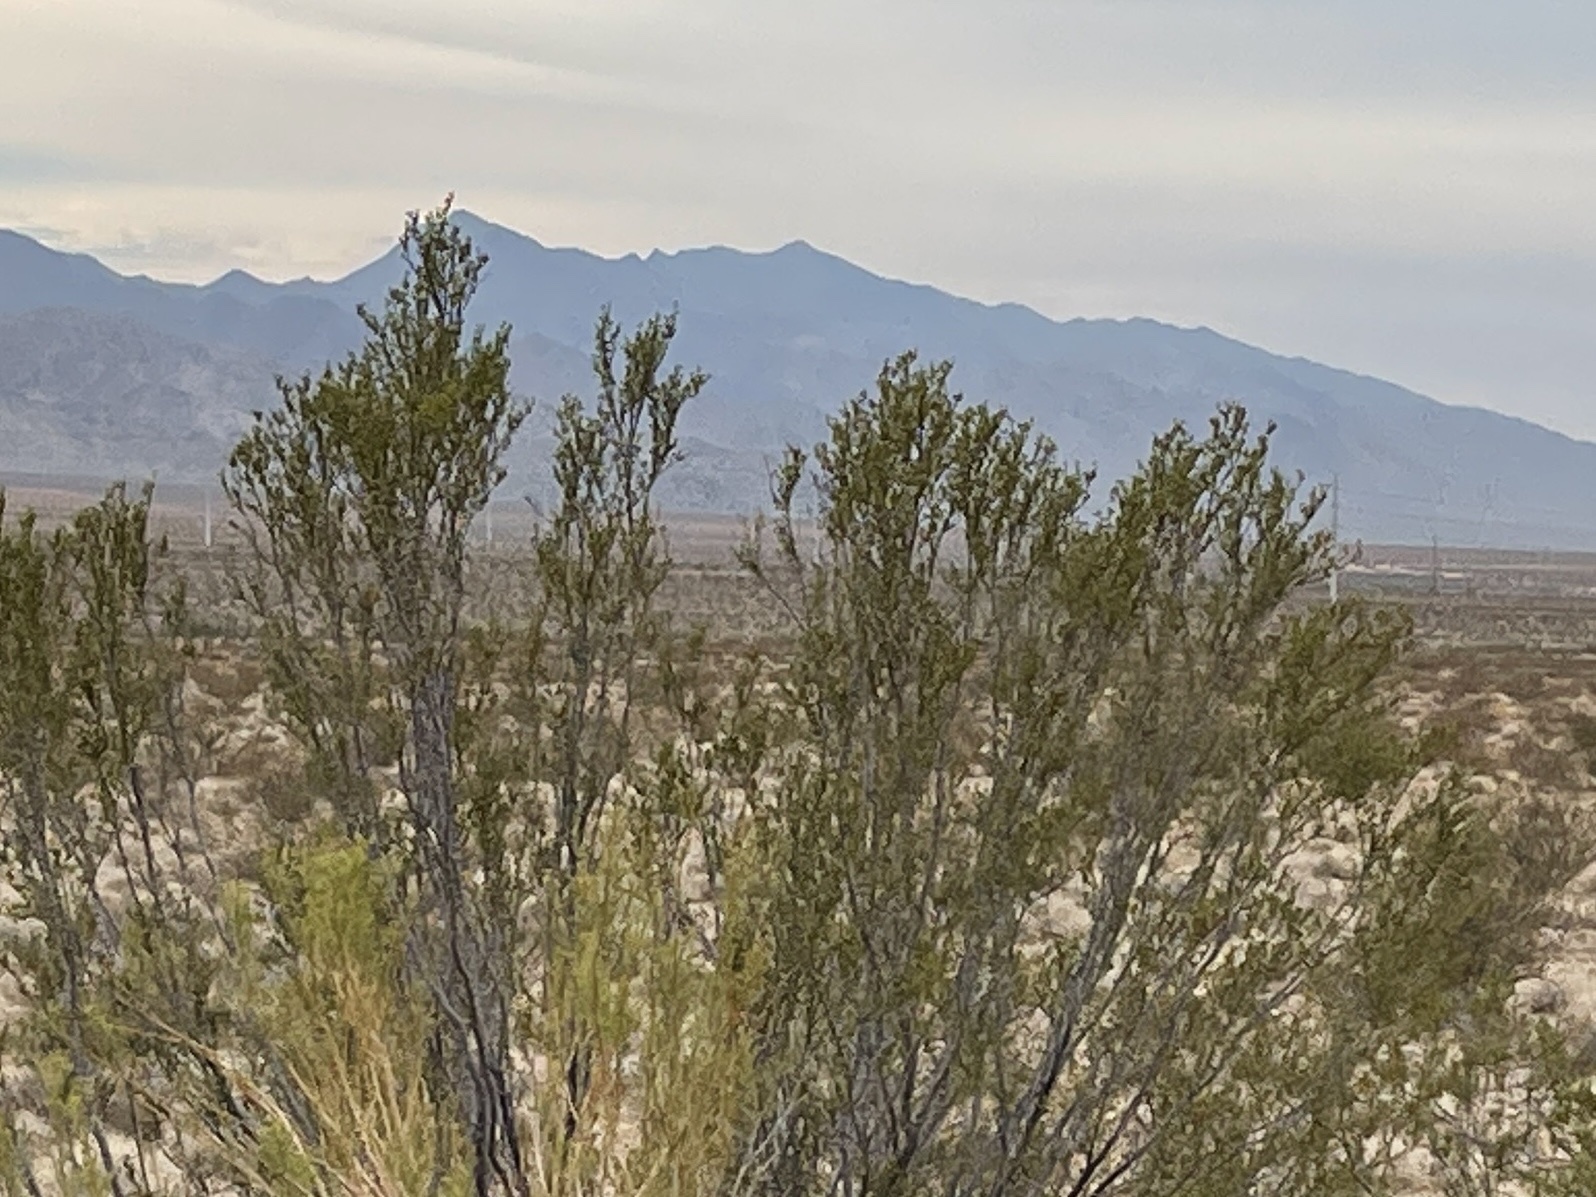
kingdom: Plantae
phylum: Tracheophyta
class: Magnoliopsida
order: Zygophyllales
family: Zygophyllaceae
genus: Larrea
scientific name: Larrea tridentata
